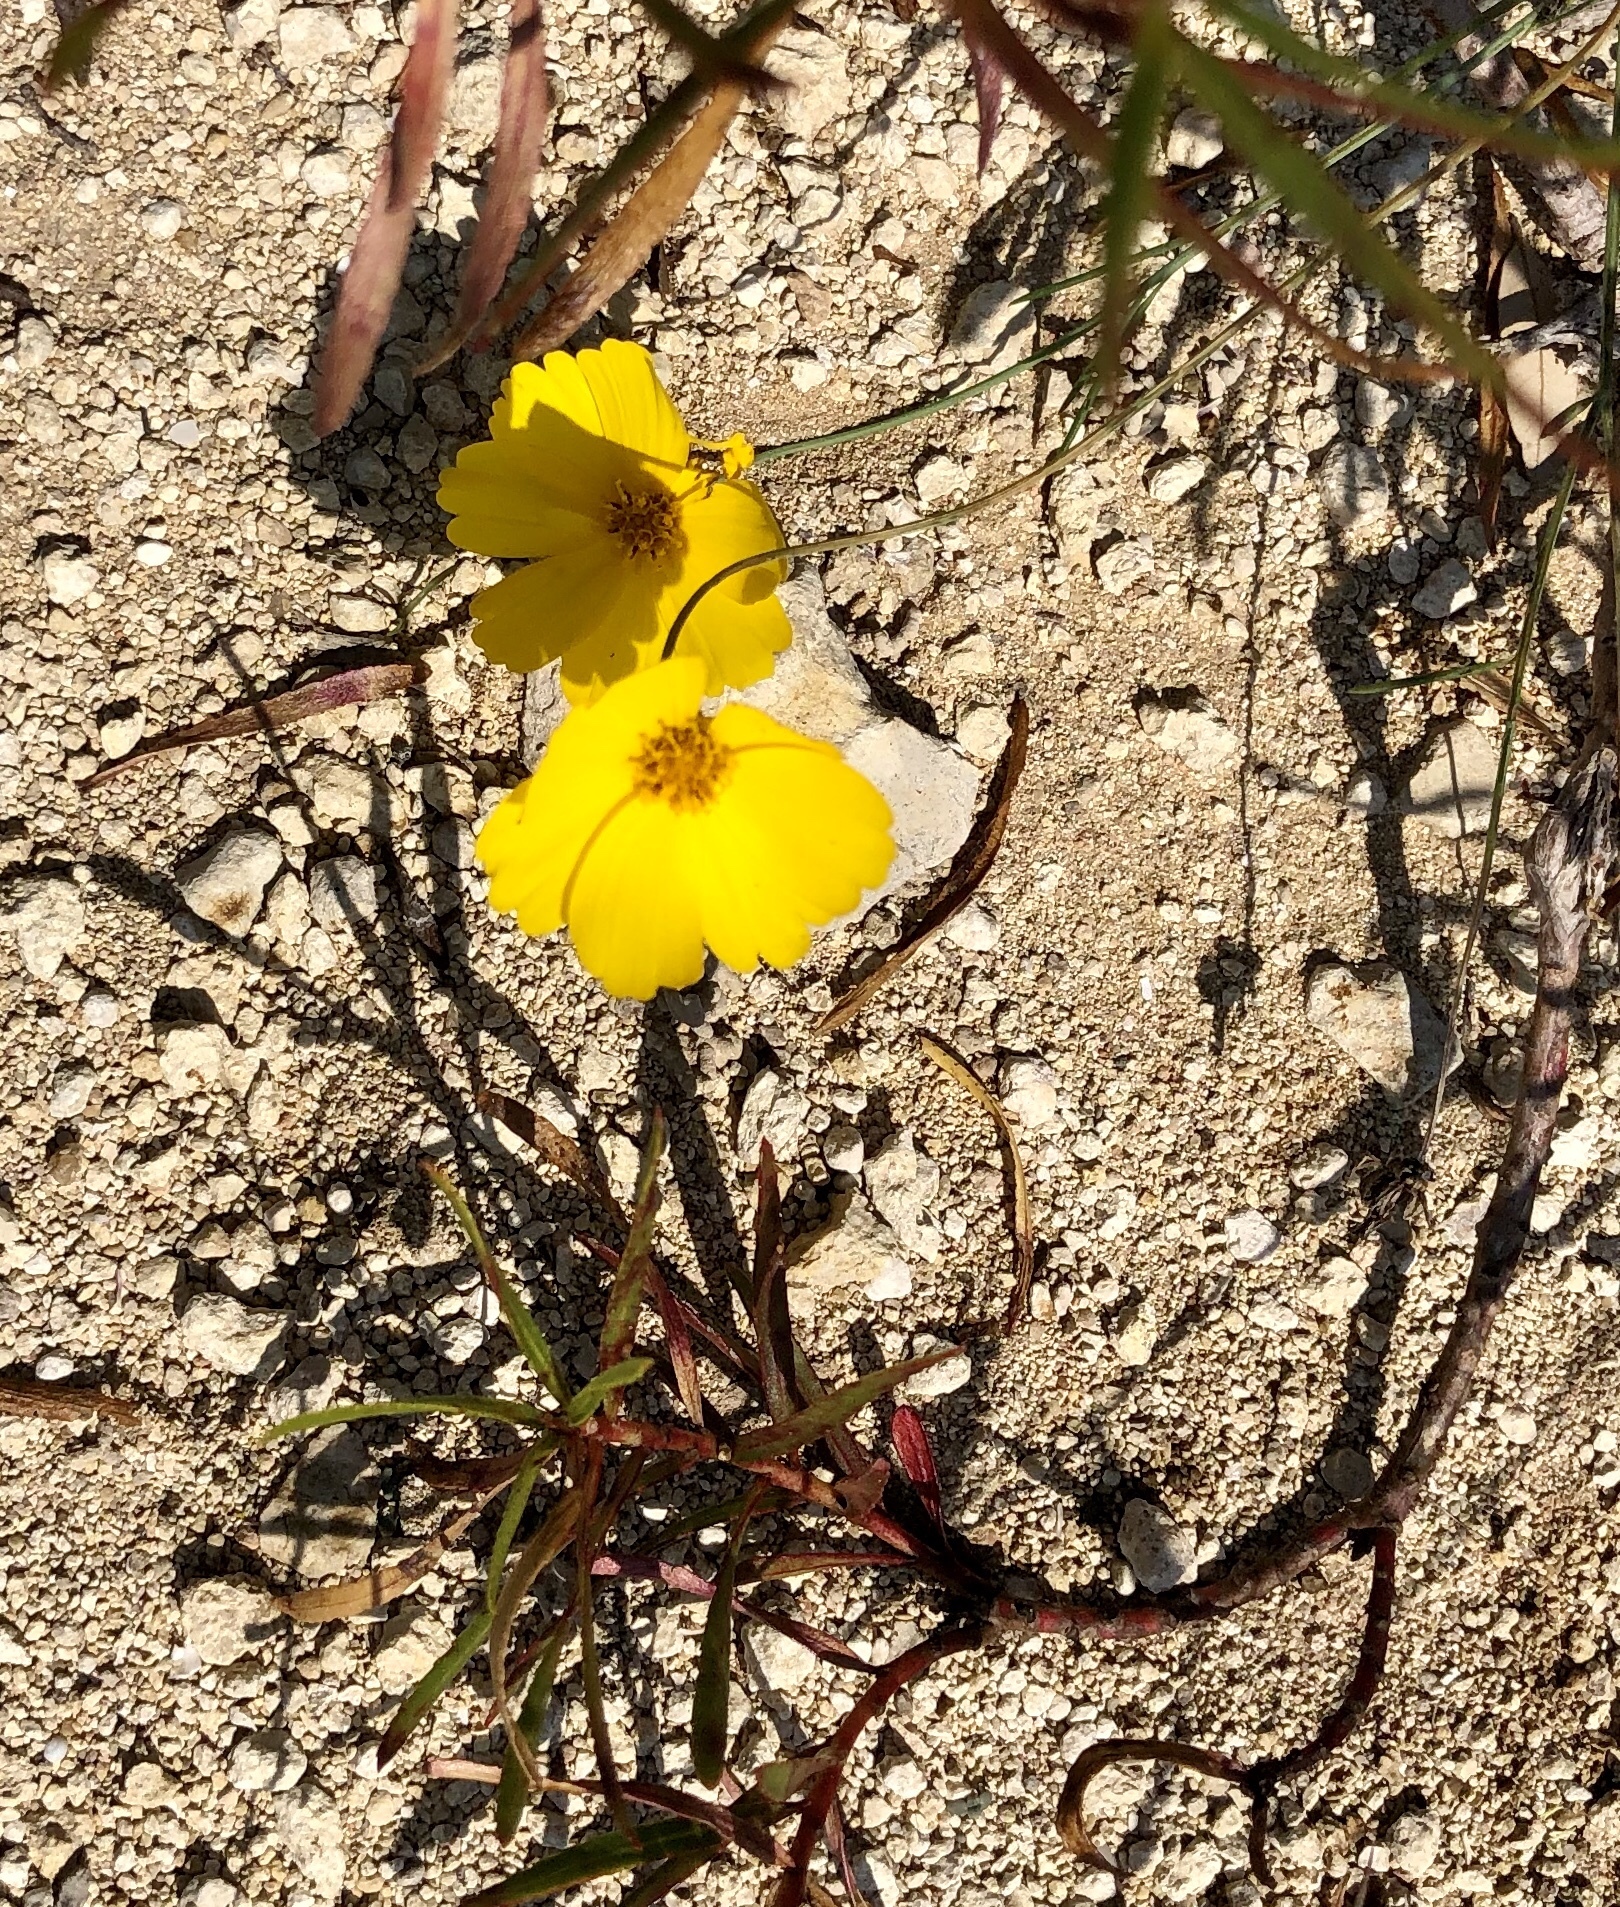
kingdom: Plantae
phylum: Tracheophyta
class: Magnoliopsida
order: Asterales
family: Asteraceae
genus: Thelesperma
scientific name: Thelesperma simplicifolium
